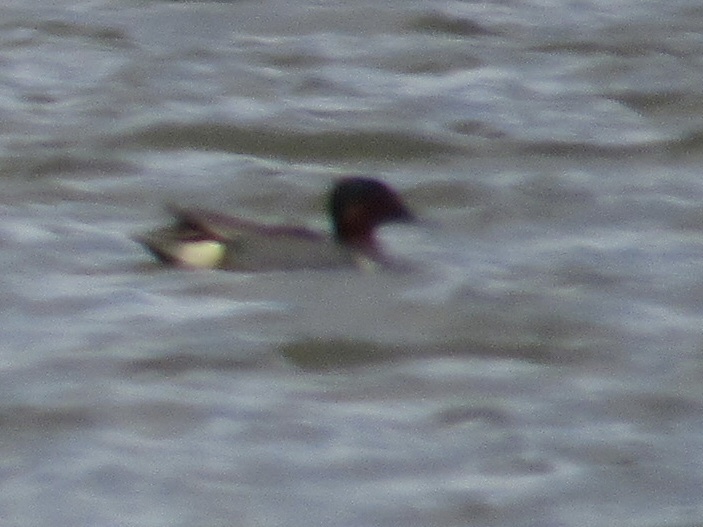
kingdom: Animalia
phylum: Chordata
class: Aves
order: Anseriformes
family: Anatidae
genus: Anas
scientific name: Anas crecca
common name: Eurasian teal
